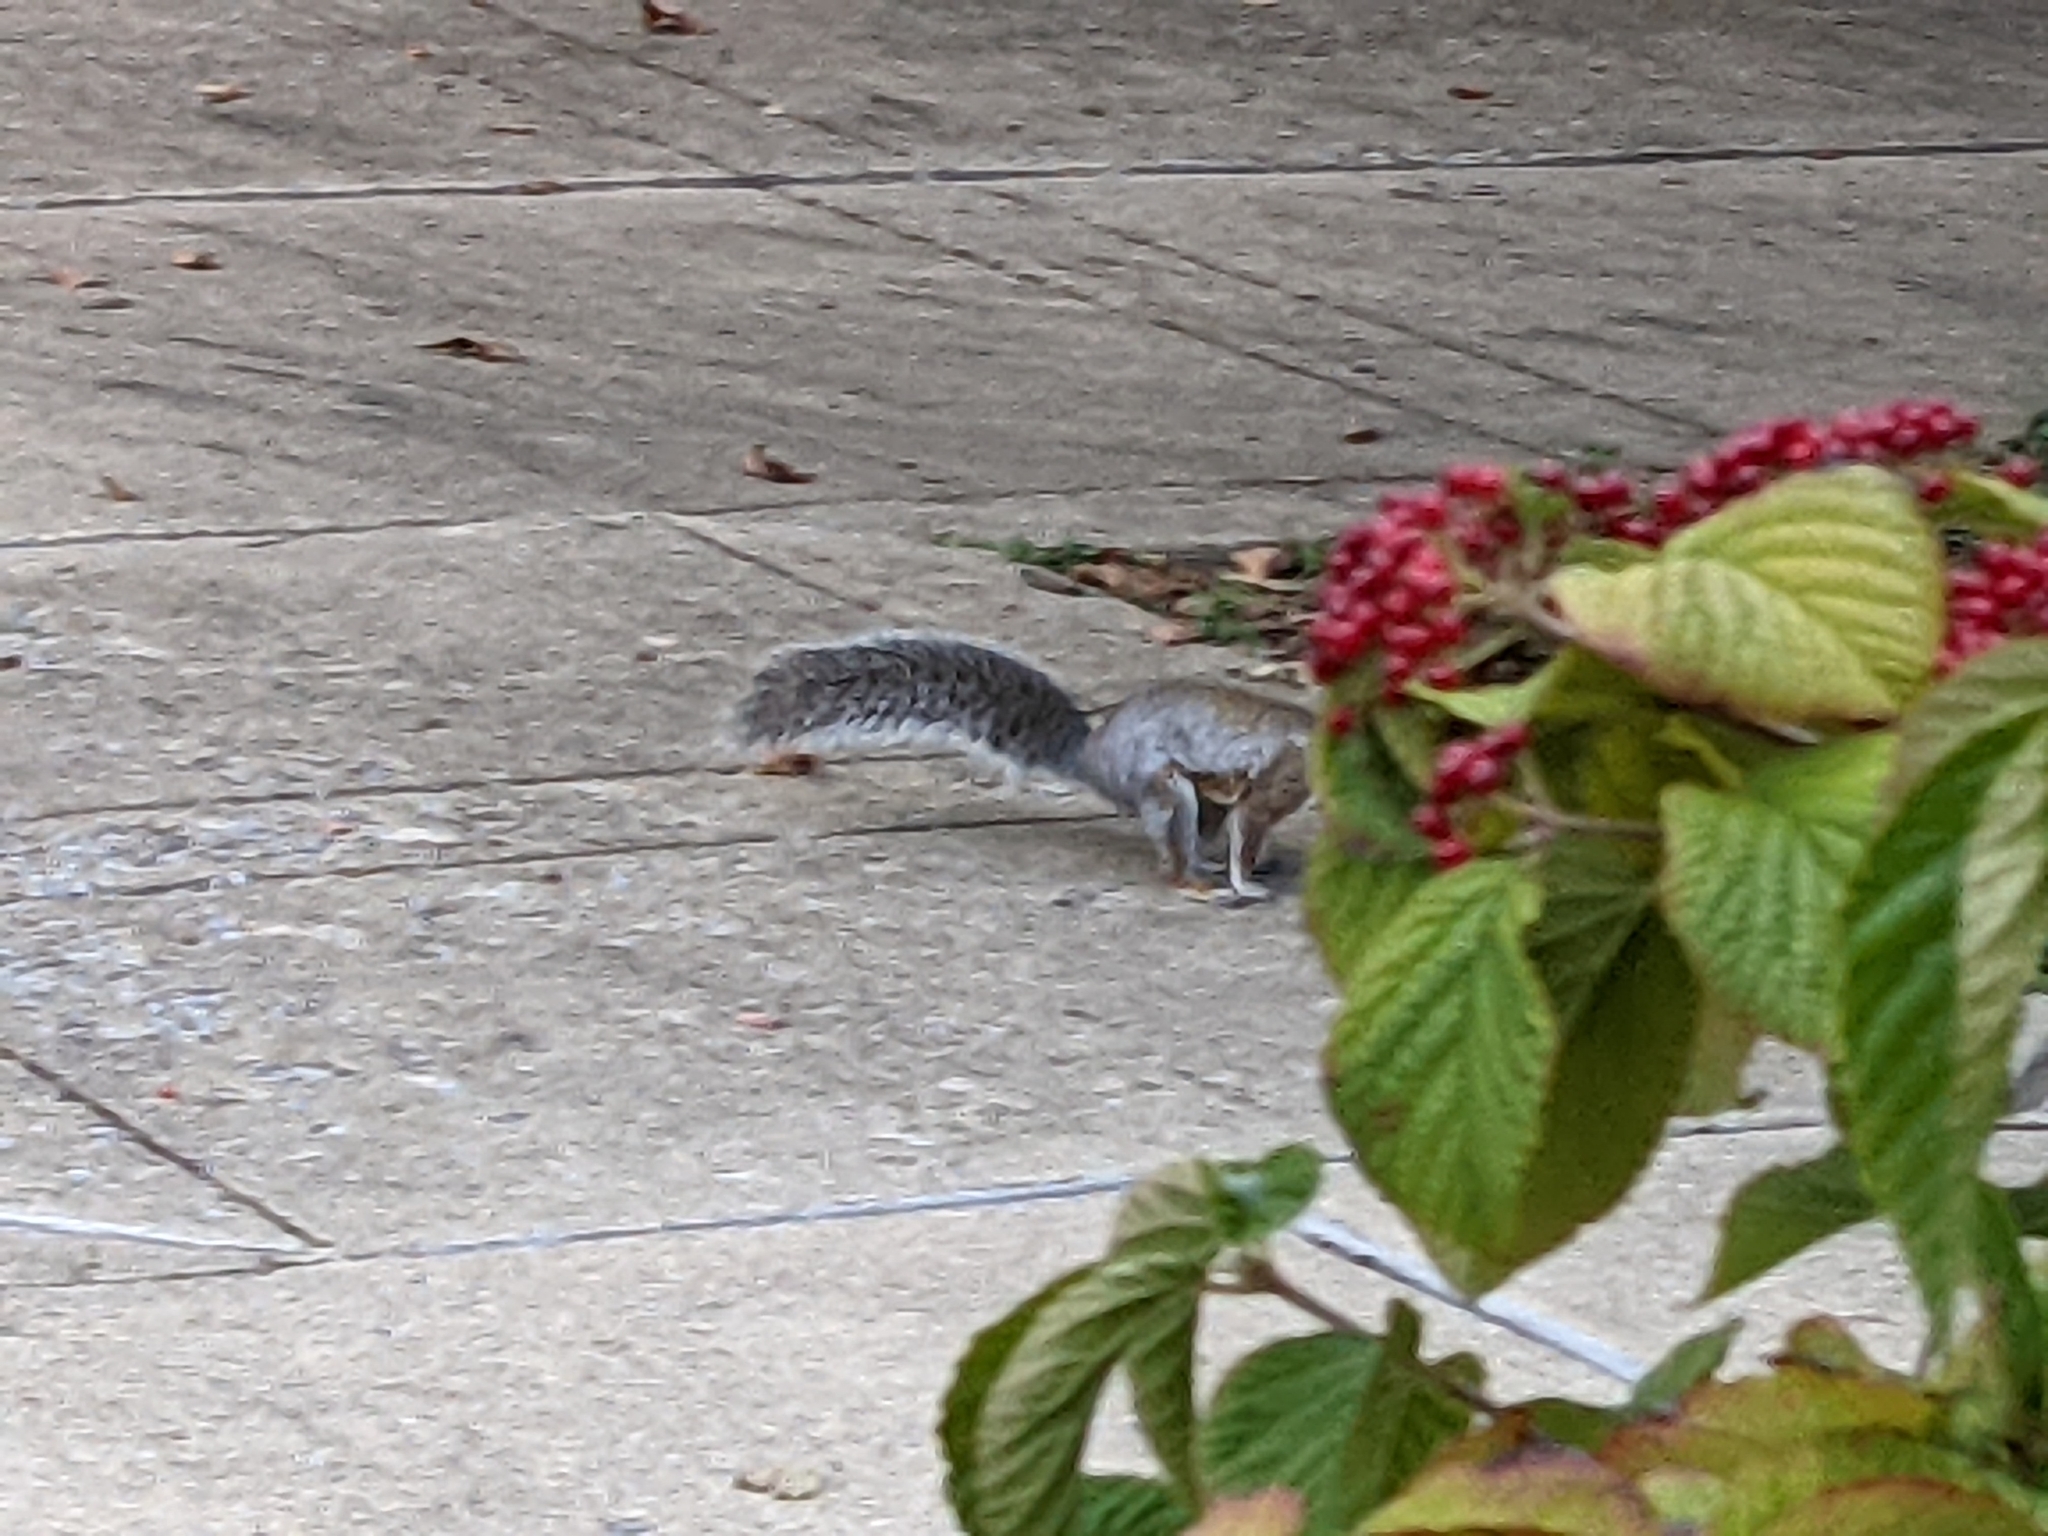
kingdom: Animalia
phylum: Chordata
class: Mammalia
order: Rodentia
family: Sciuridae
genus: Sciurus
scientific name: Sciurus carolinensis
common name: Eastern gray squirrel
